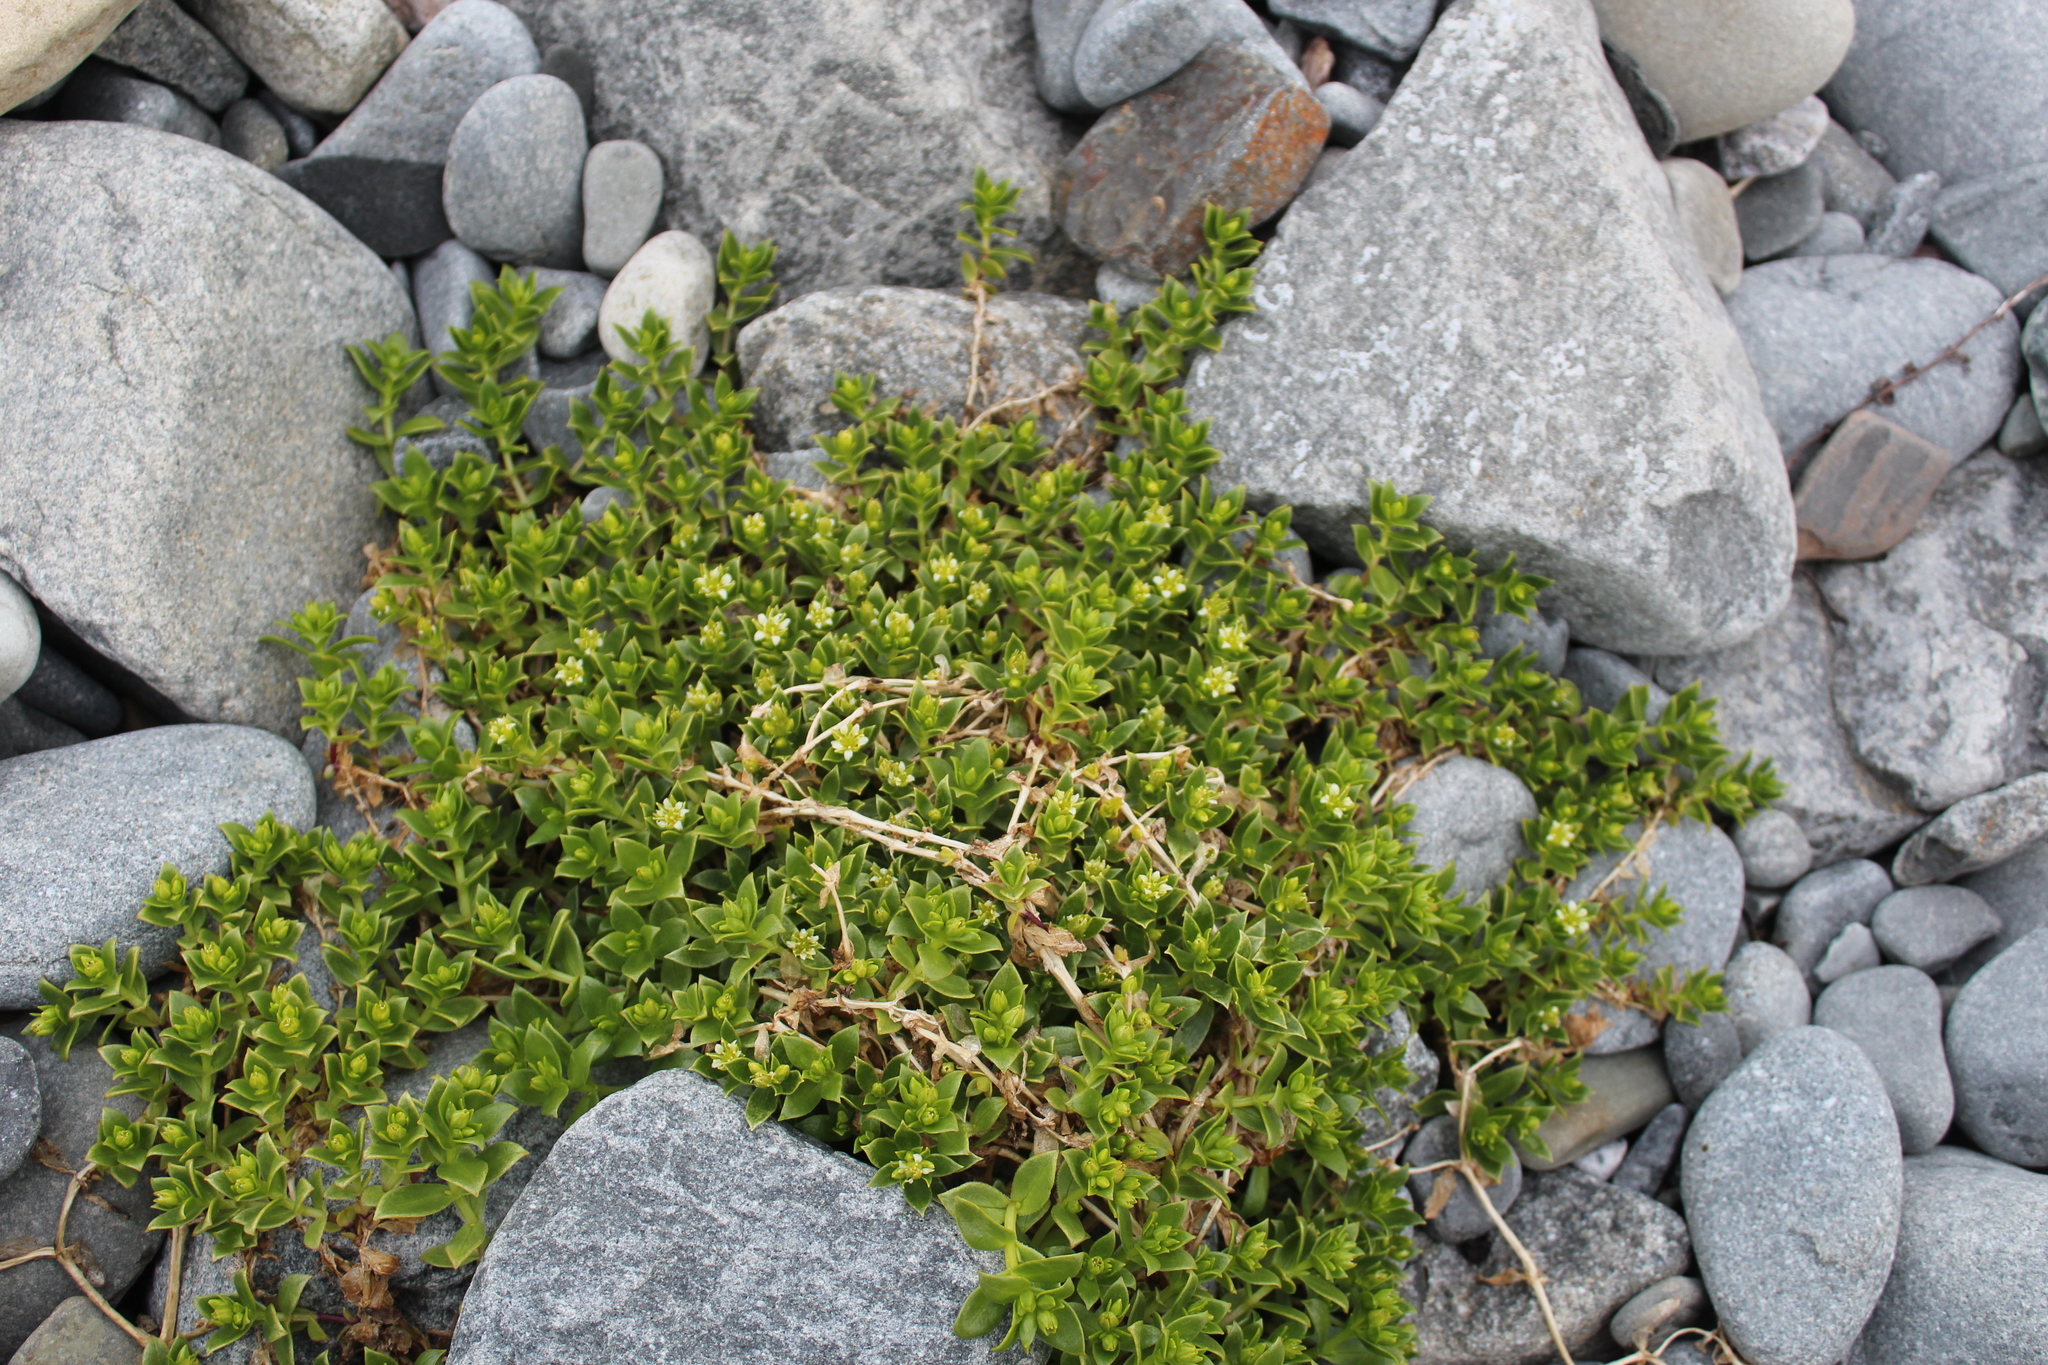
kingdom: Plantae
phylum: Tracheophyta
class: Magnoliopsida
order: Caryophyllales
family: Caryophyllaceae
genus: Honckenya
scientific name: Honckenya peploides
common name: Sea sandwort
